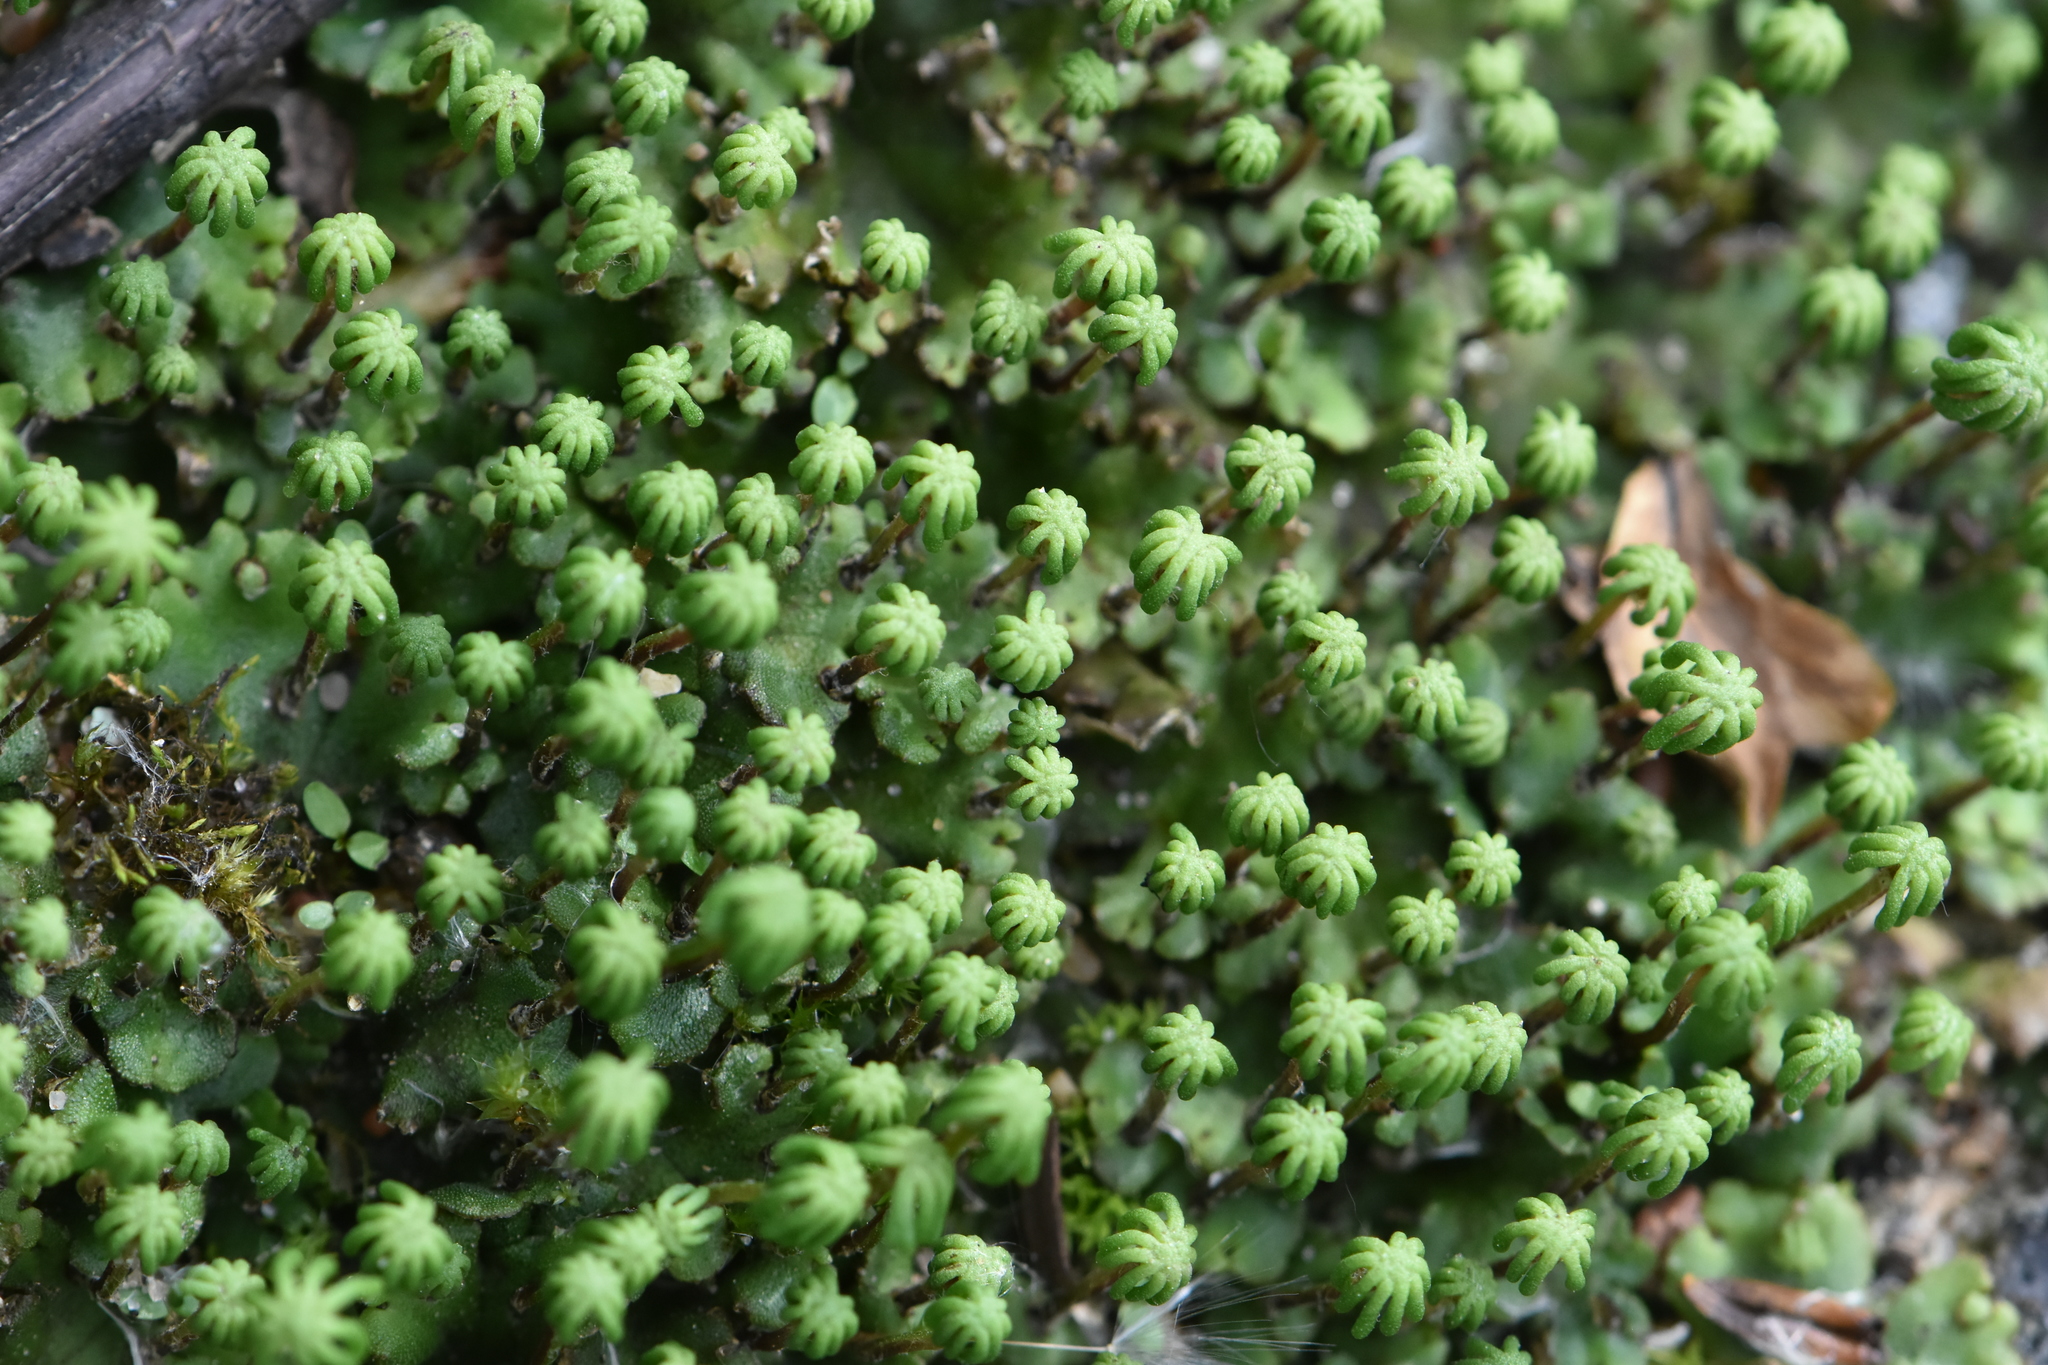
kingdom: Plantae
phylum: Marchantiophyta
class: Marchantiopsida
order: Marchantiales
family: Marchantiaceae
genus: Marchantia
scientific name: Marchantia polymorpha
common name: Common liverwort
